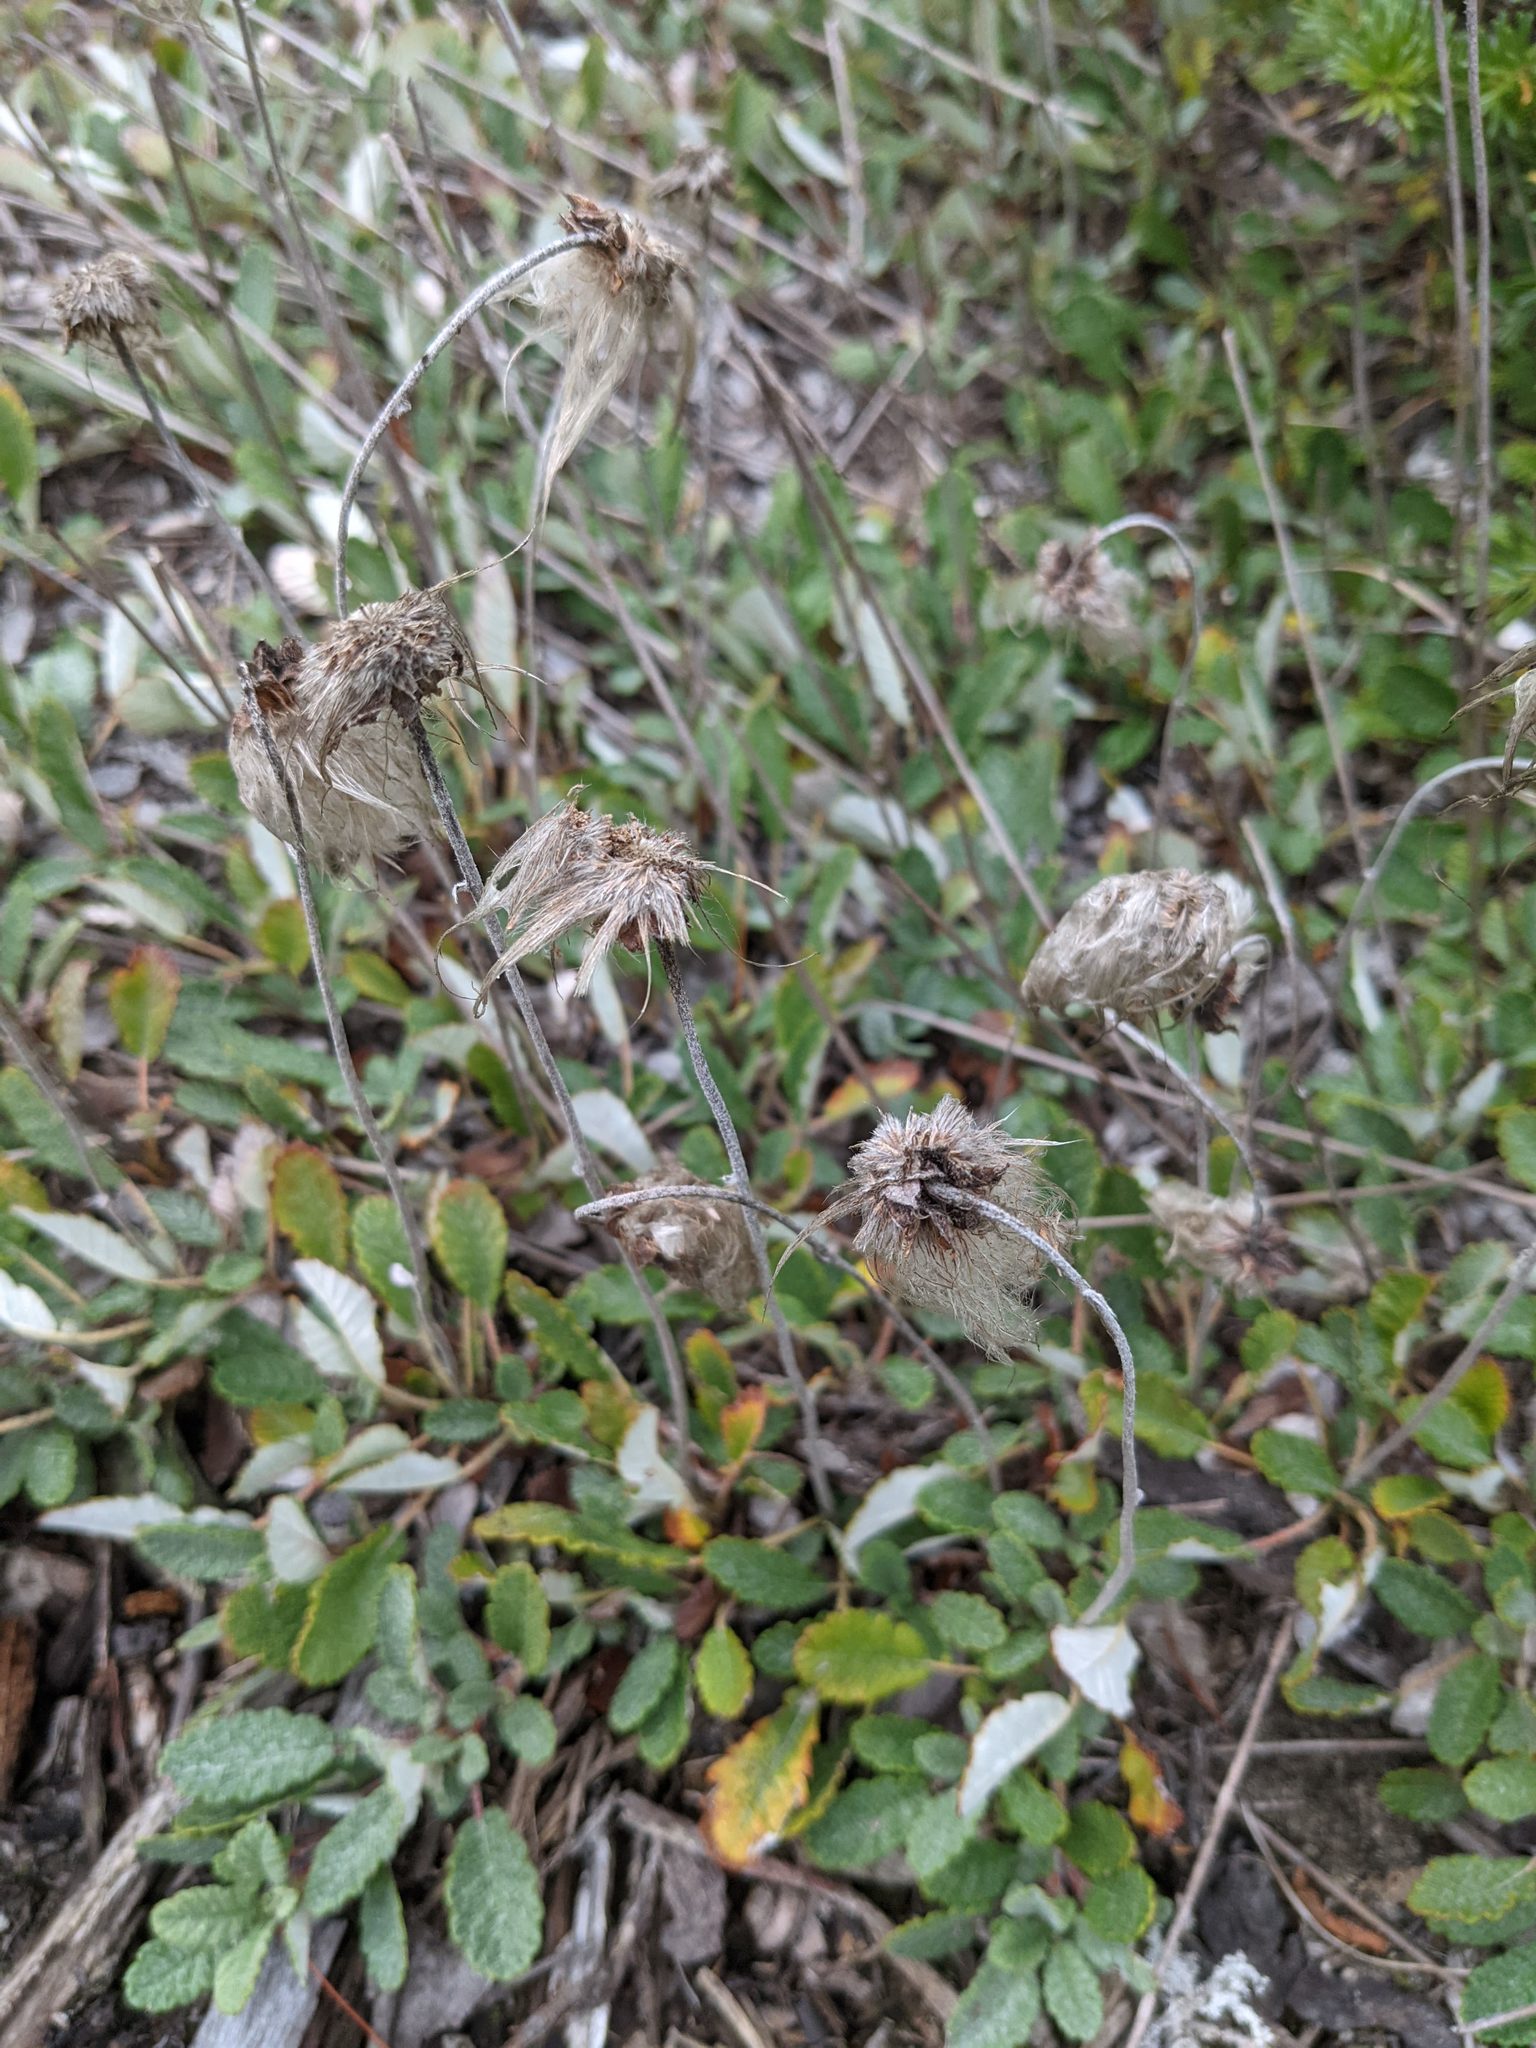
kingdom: Plantae
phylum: Tracheophyta
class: Magnoliopsida
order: Rosales
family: Rosaceae
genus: Dryas
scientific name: Dryas drummondii
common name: Drummond's dryad
